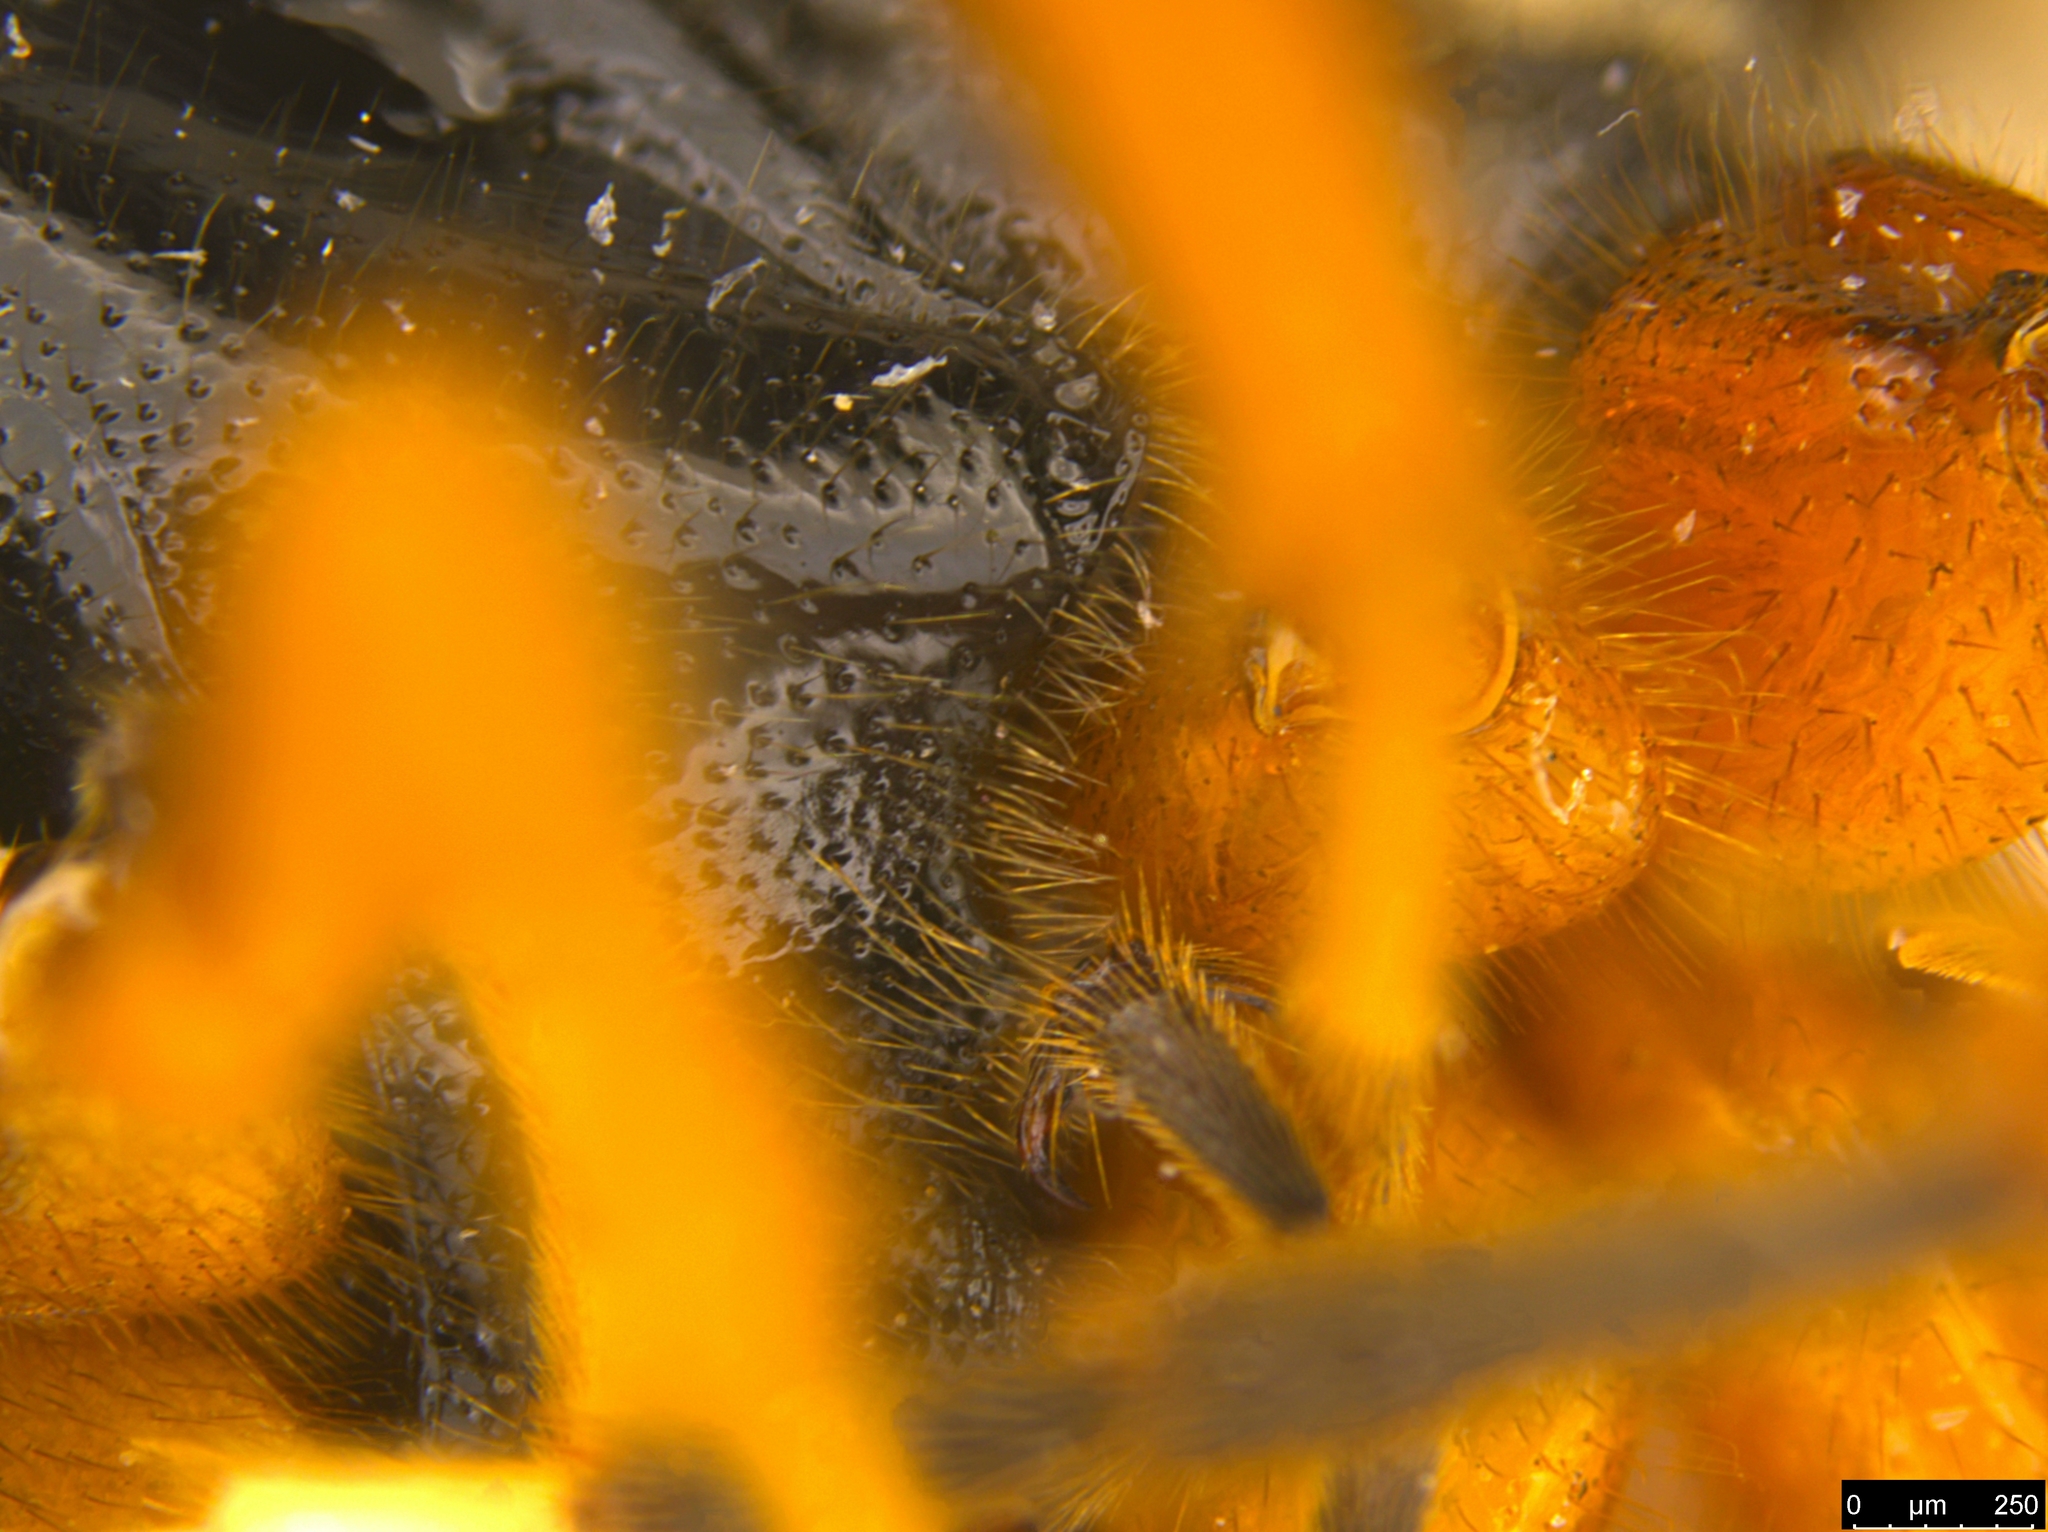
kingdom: Animalia
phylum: Arthropoda
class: Insecta
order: Hymenoptera
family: Ichneumonidae
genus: Tryonocryptus
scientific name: Tryonocryptus nigridorsalis
